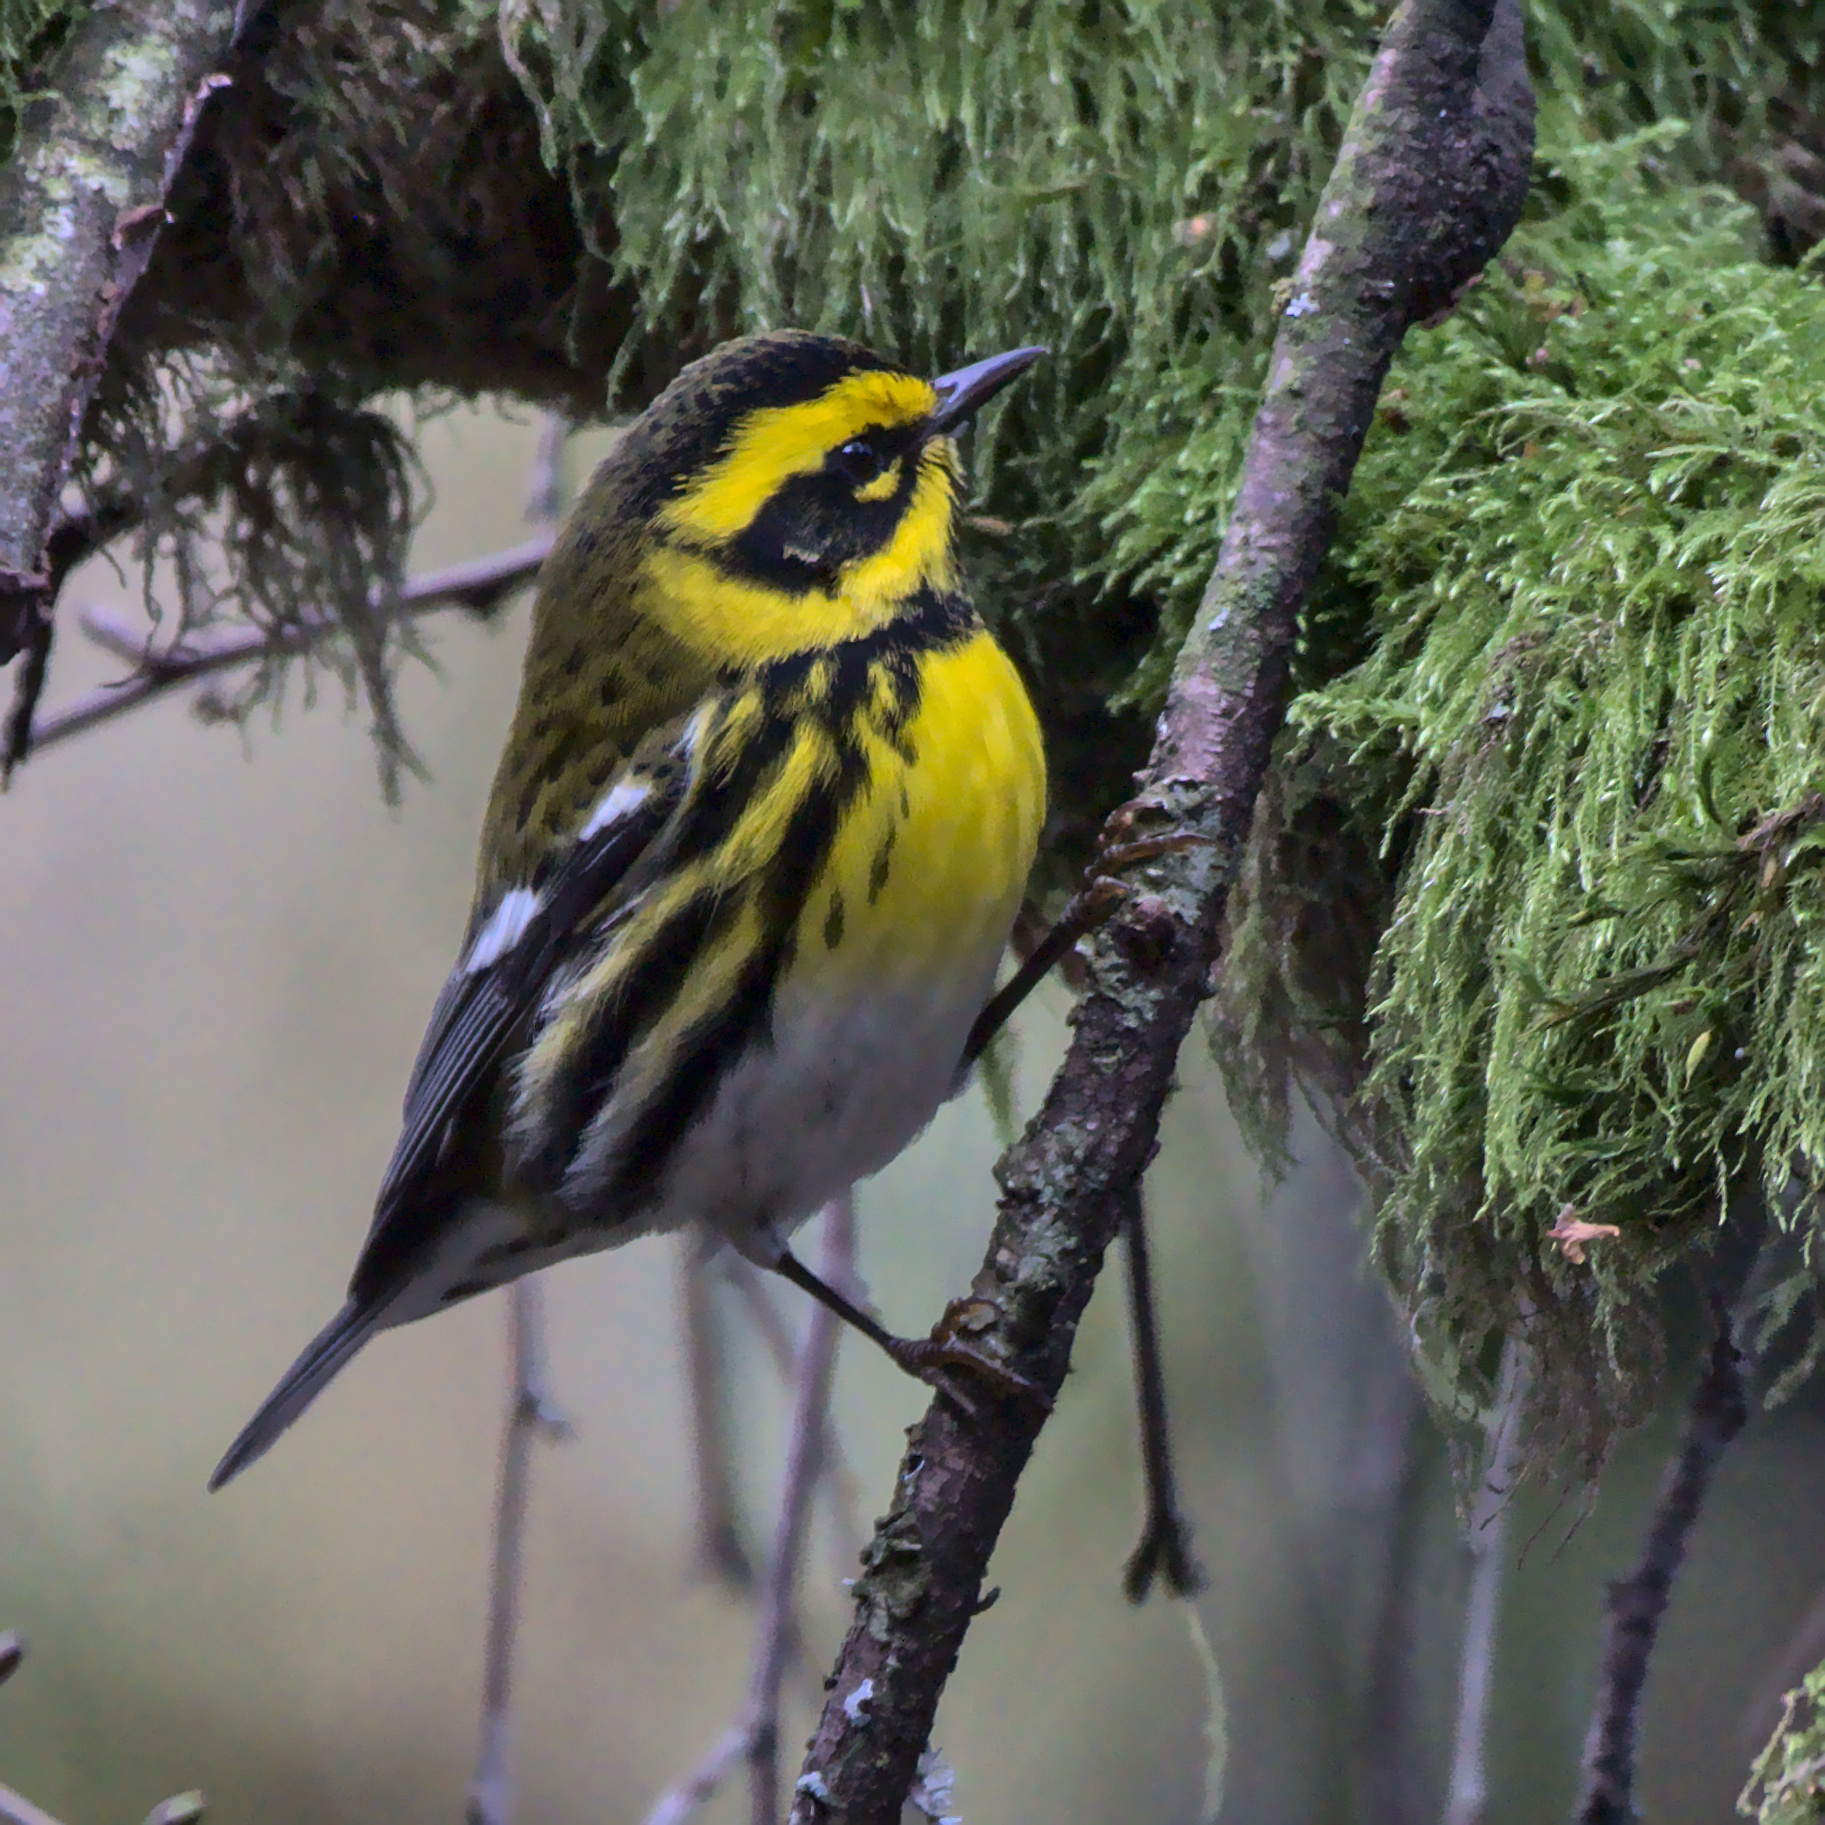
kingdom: Animalia
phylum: Chordata
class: Aves
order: Passeriformes
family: Parulidae
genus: Setophaga
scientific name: Setophaga townsendi
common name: Townsend's warbler
